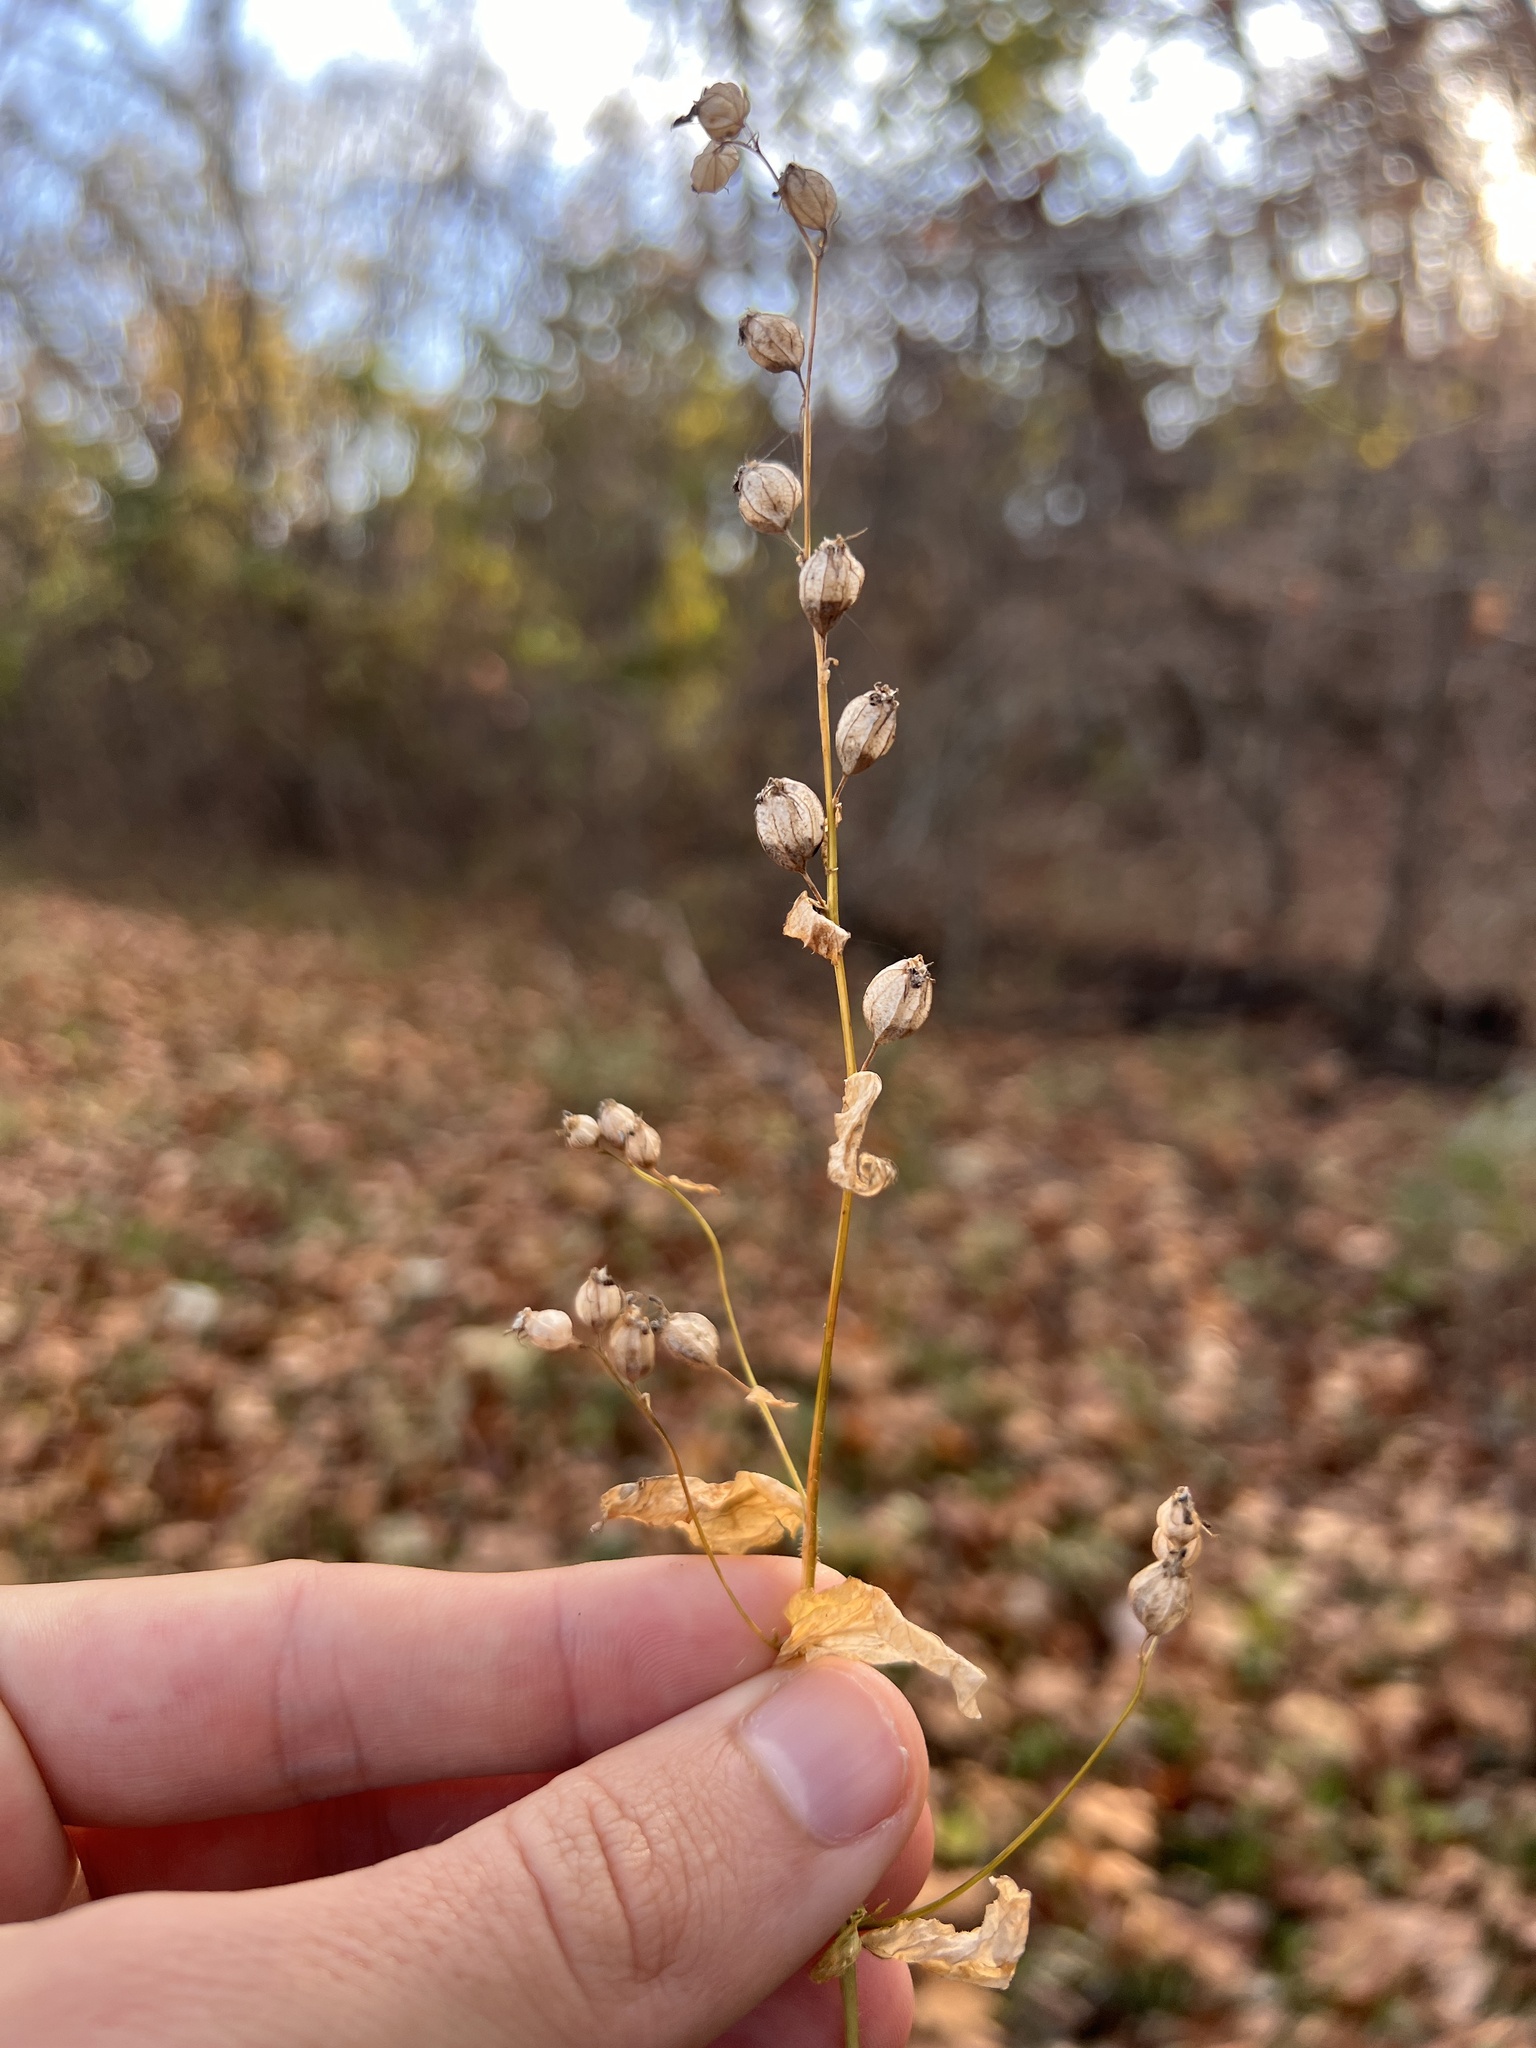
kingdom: Plantae
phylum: Tracheophyta
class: Magnoliopsida
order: Asterales
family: Campanulaceae
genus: Lobelia
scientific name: Lobelia inflata
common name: Indian tobacco
